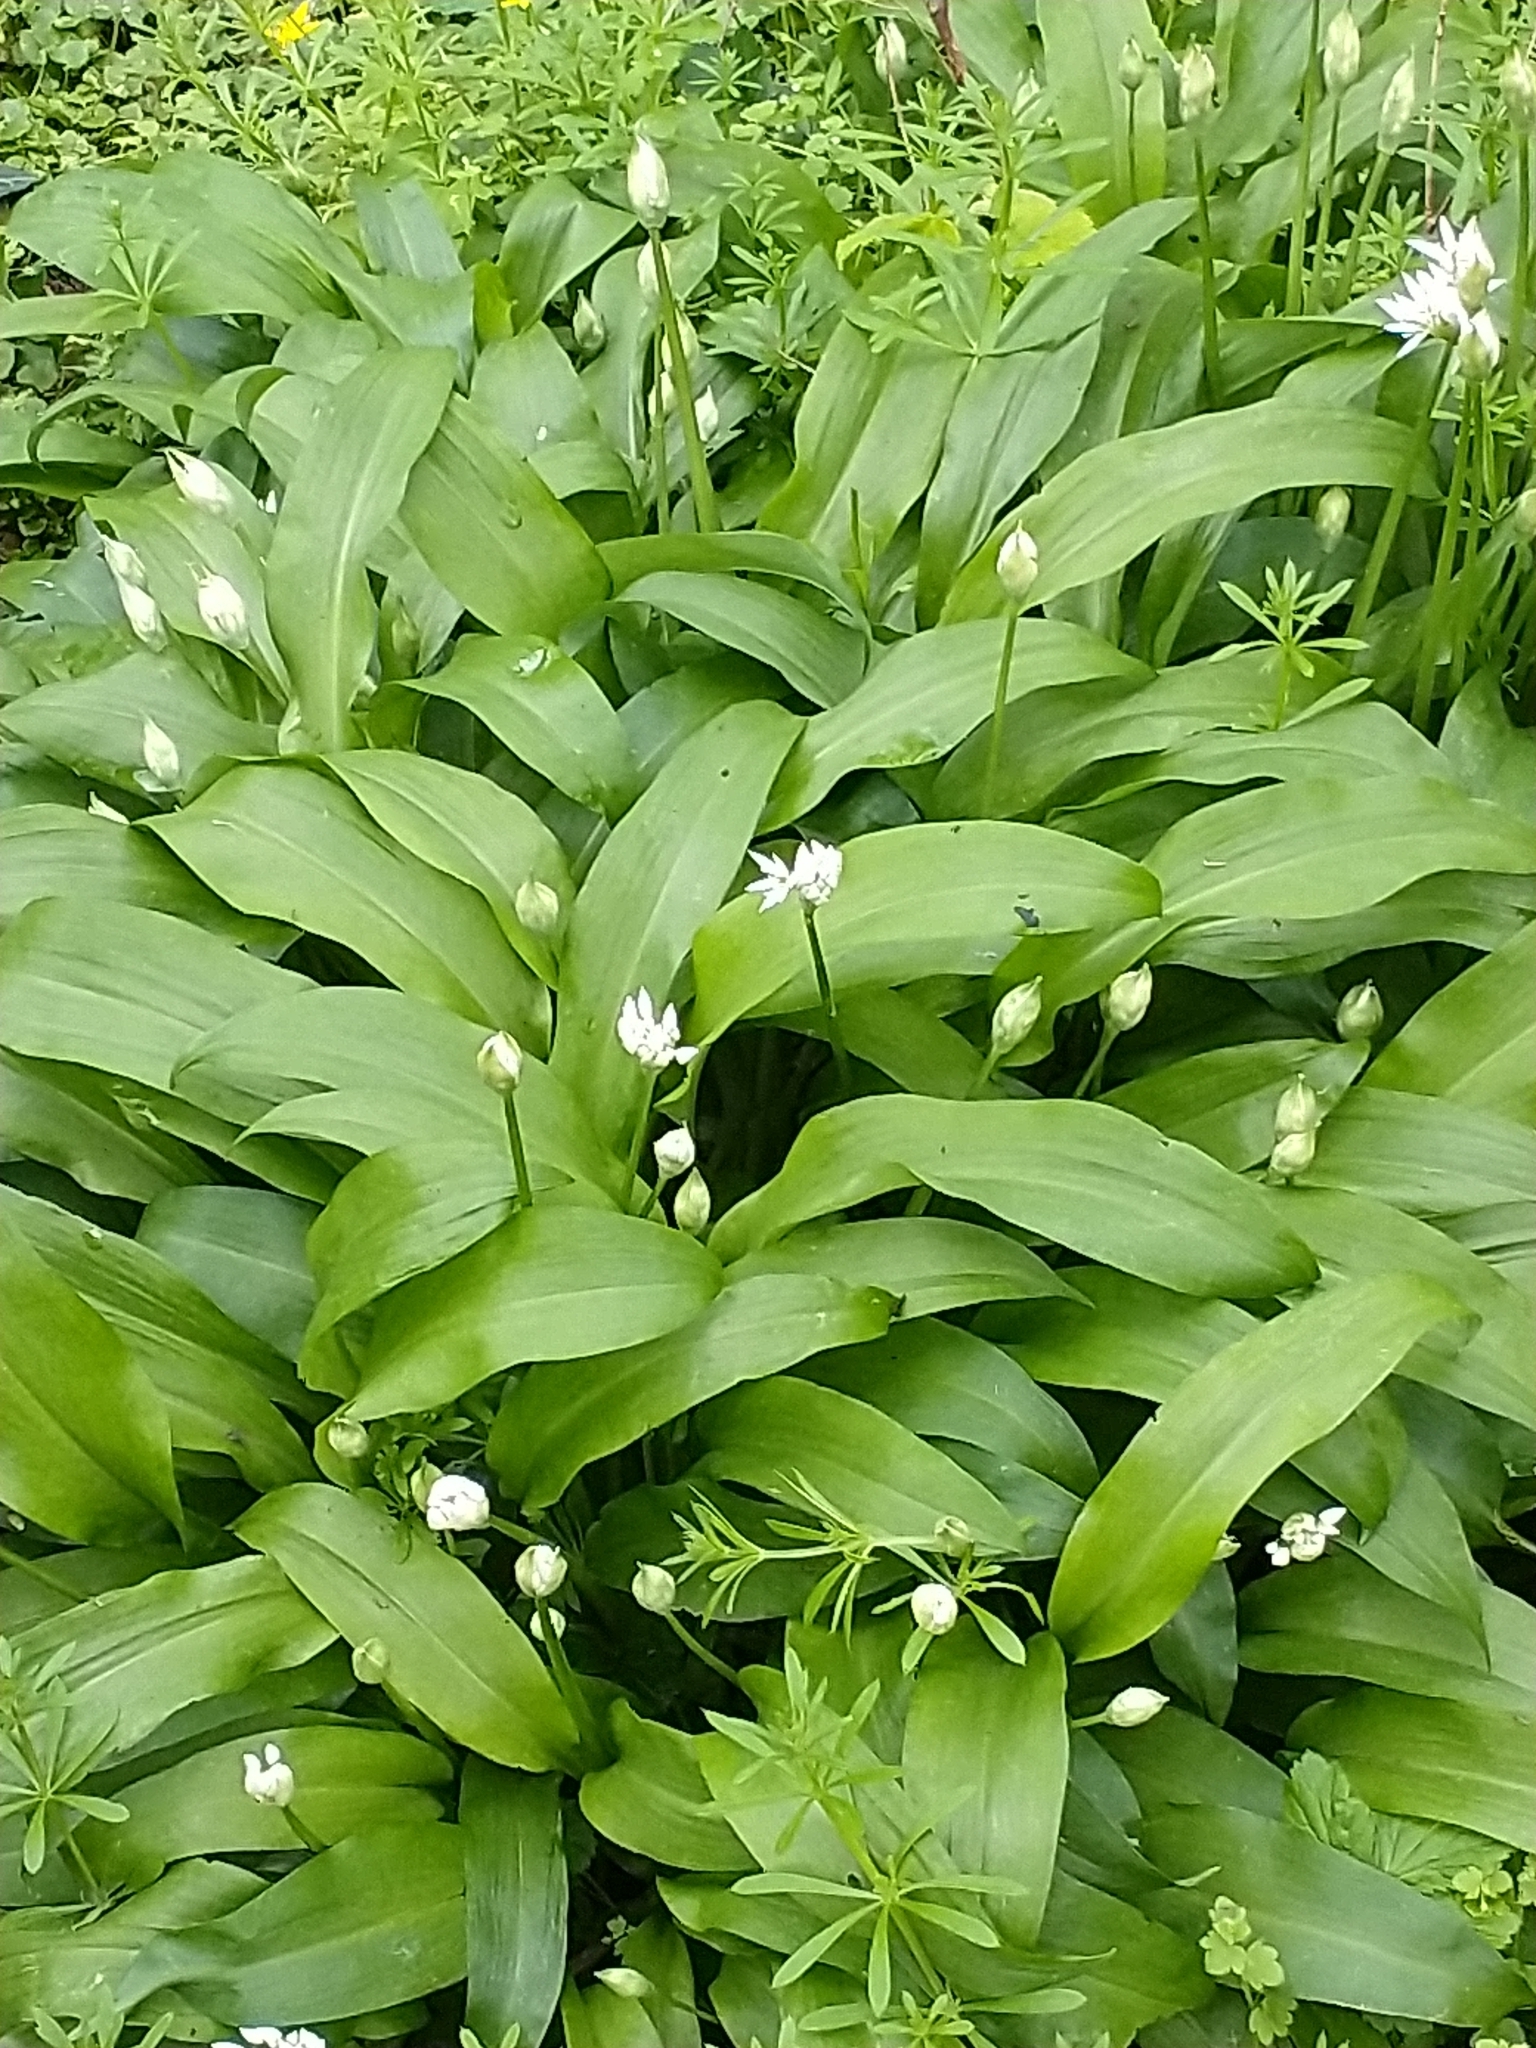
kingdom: Plantae
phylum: Tracheophyta
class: Liliopsida
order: Asparagales
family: Amaryllidaceae
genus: Allium
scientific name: Allium ursinum
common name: Ramsons
